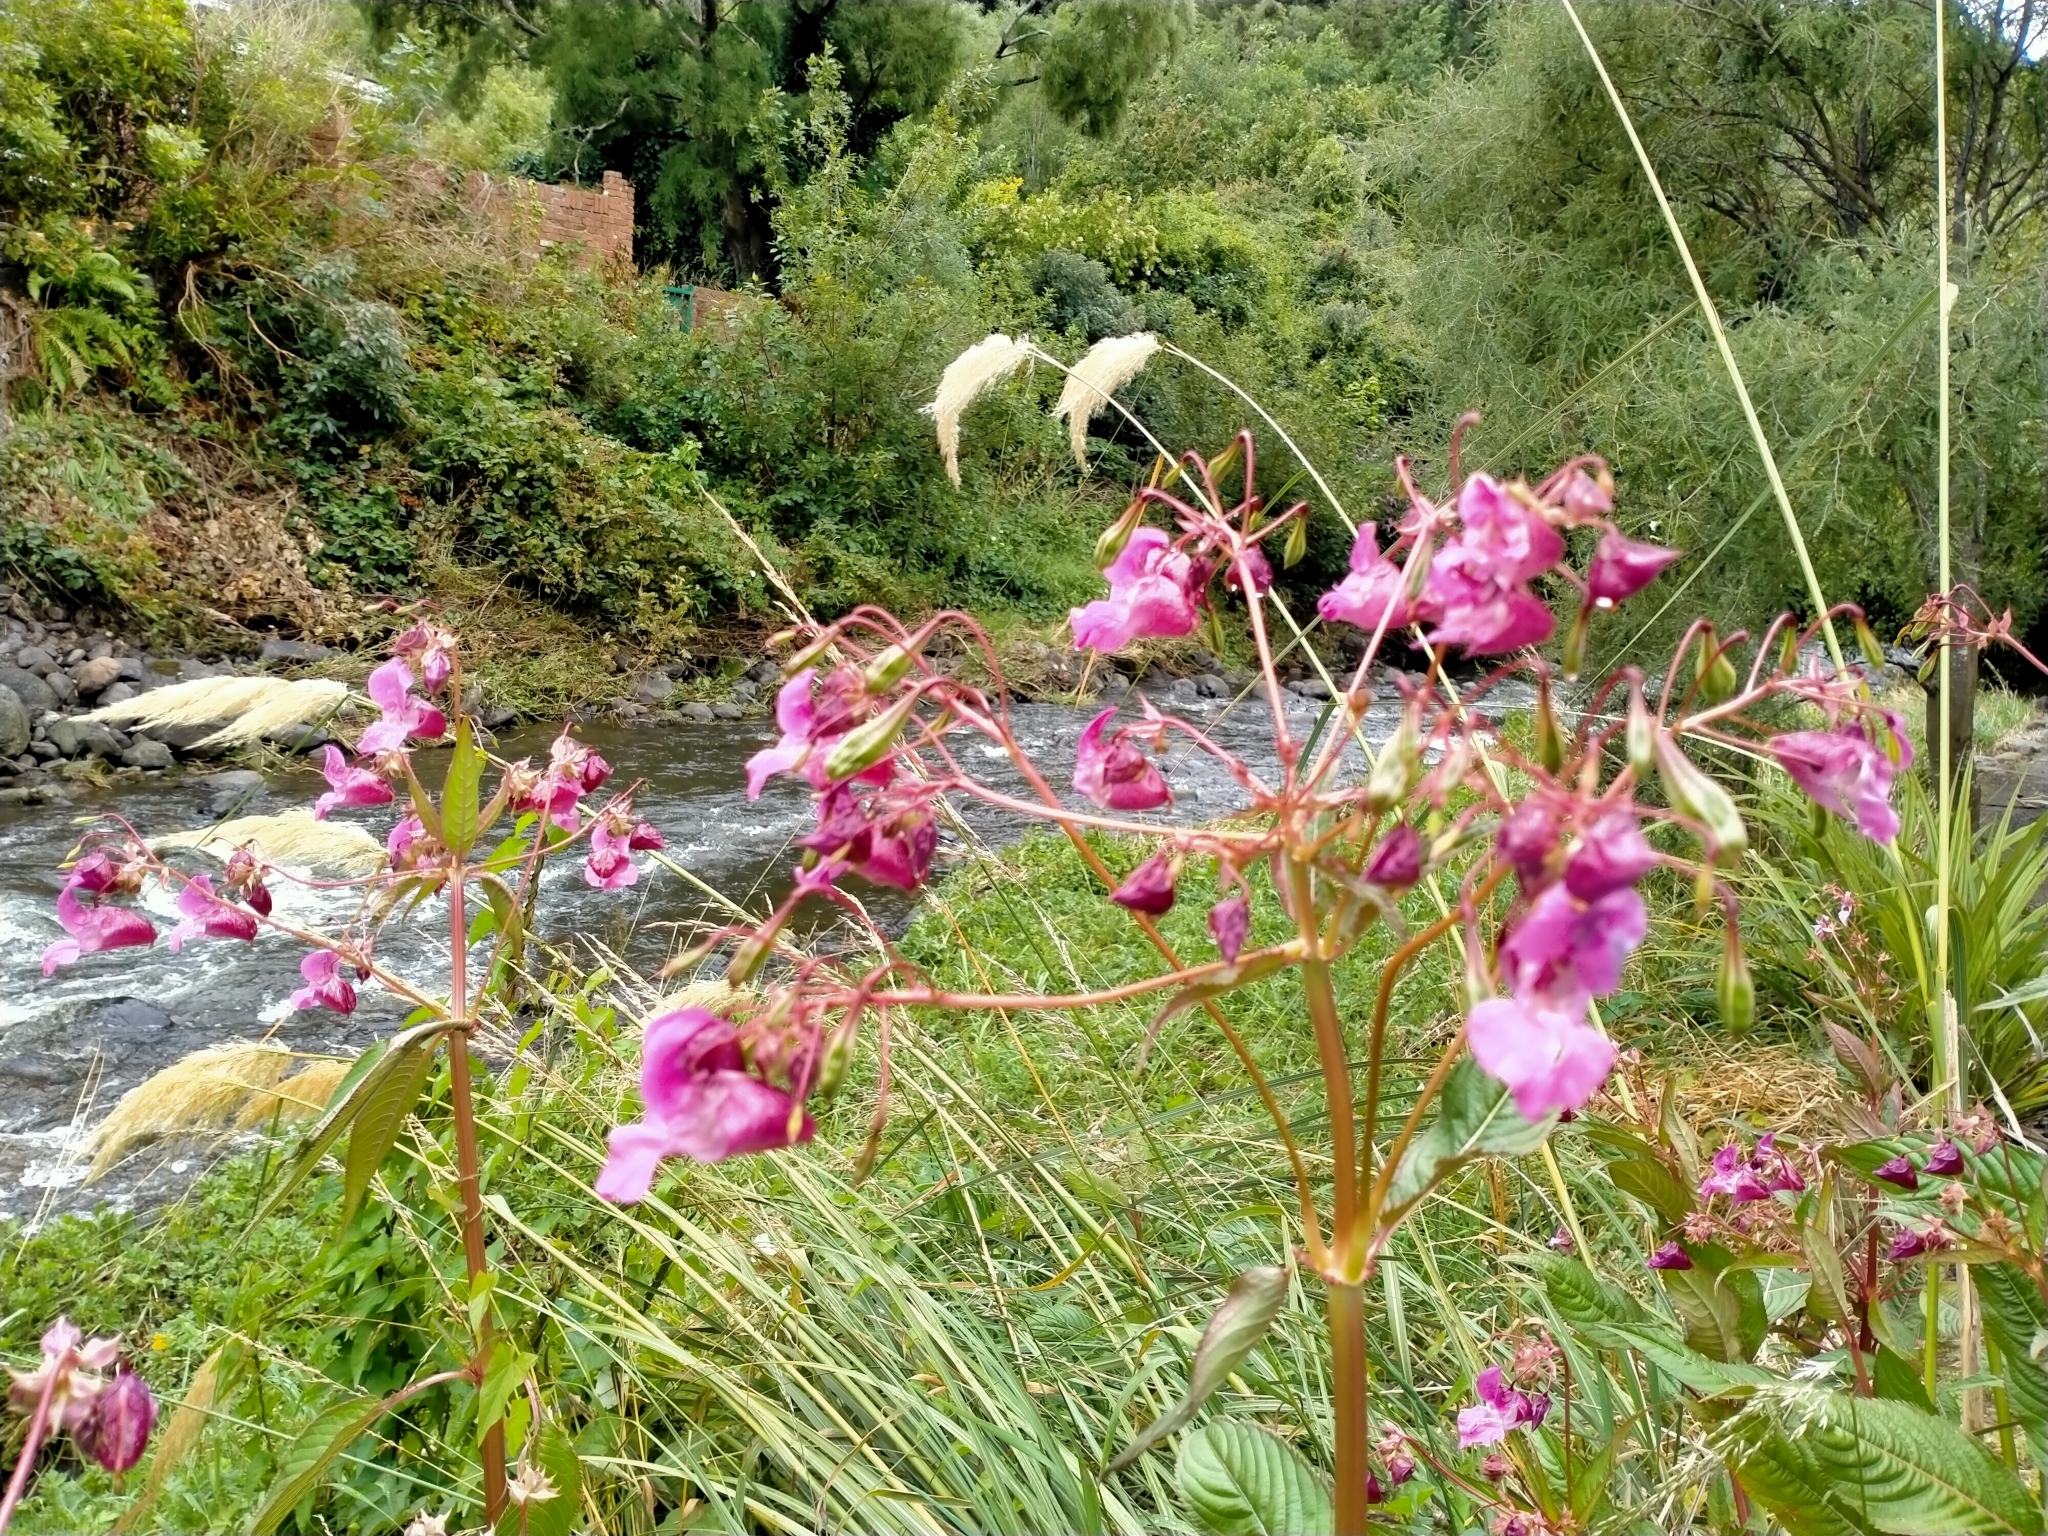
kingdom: Plantae
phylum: Tracheophyta
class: Magnoliopsida
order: Ericales
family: Balsaminaceae
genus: Impatiens
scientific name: Impatiens glandulifera
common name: Himalayan balsam
